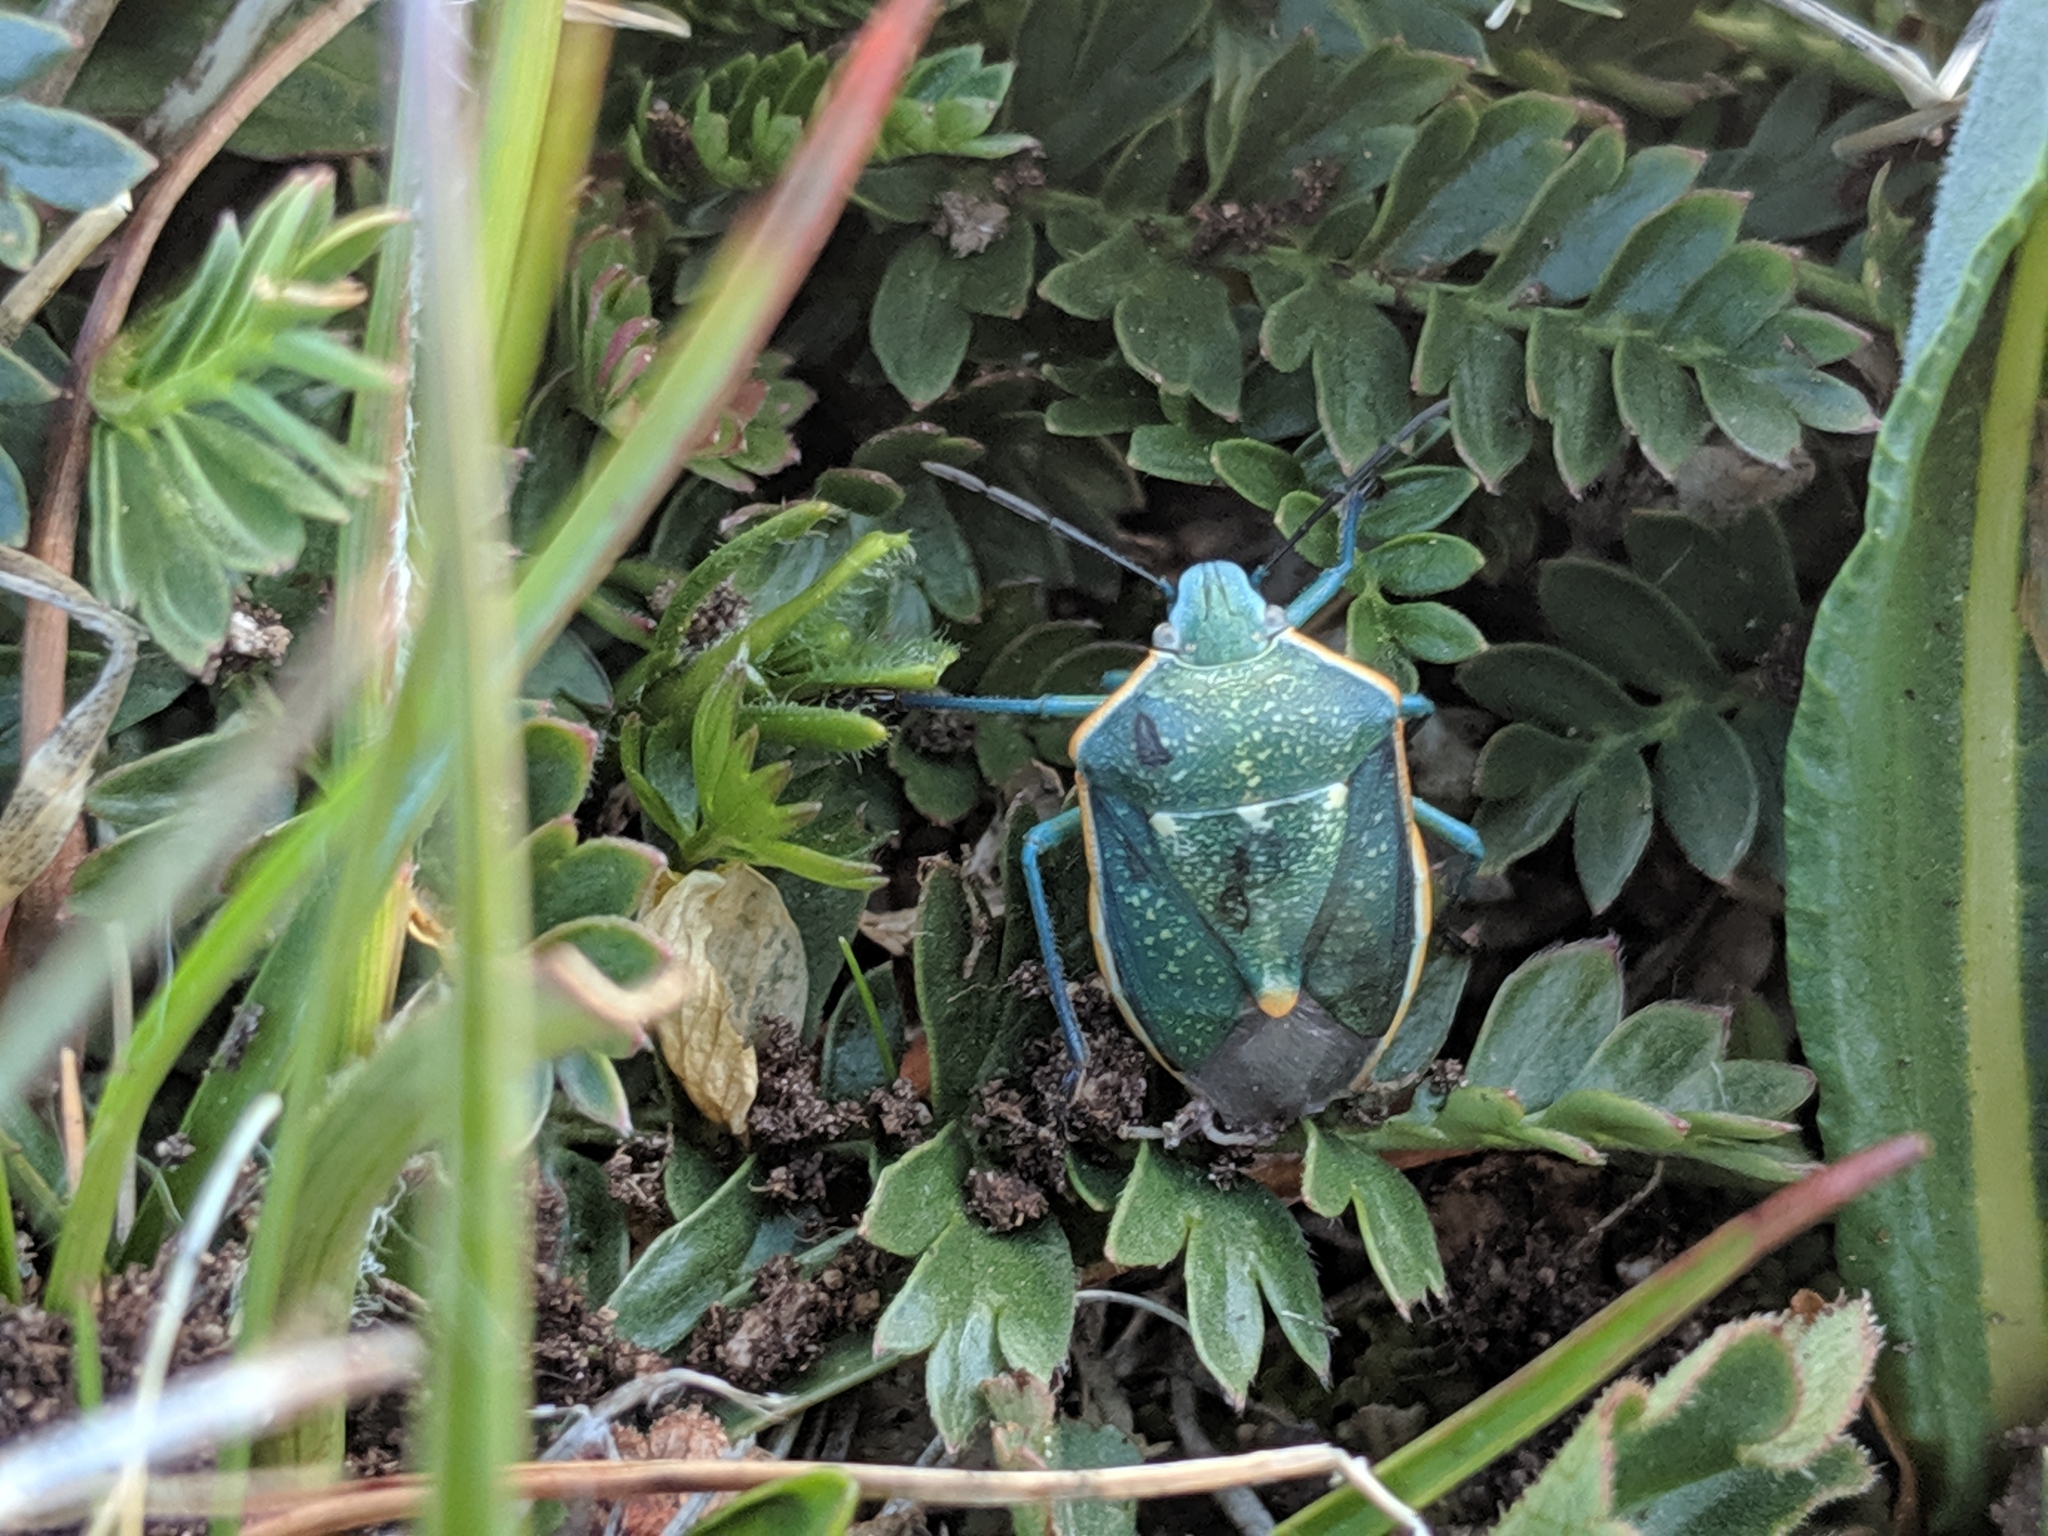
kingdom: Animalia
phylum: Arthropoda
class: Insecta
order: Hemiptera
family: Pentatomidae
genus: Chlorochroa
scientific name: Chlorochroa sayi
